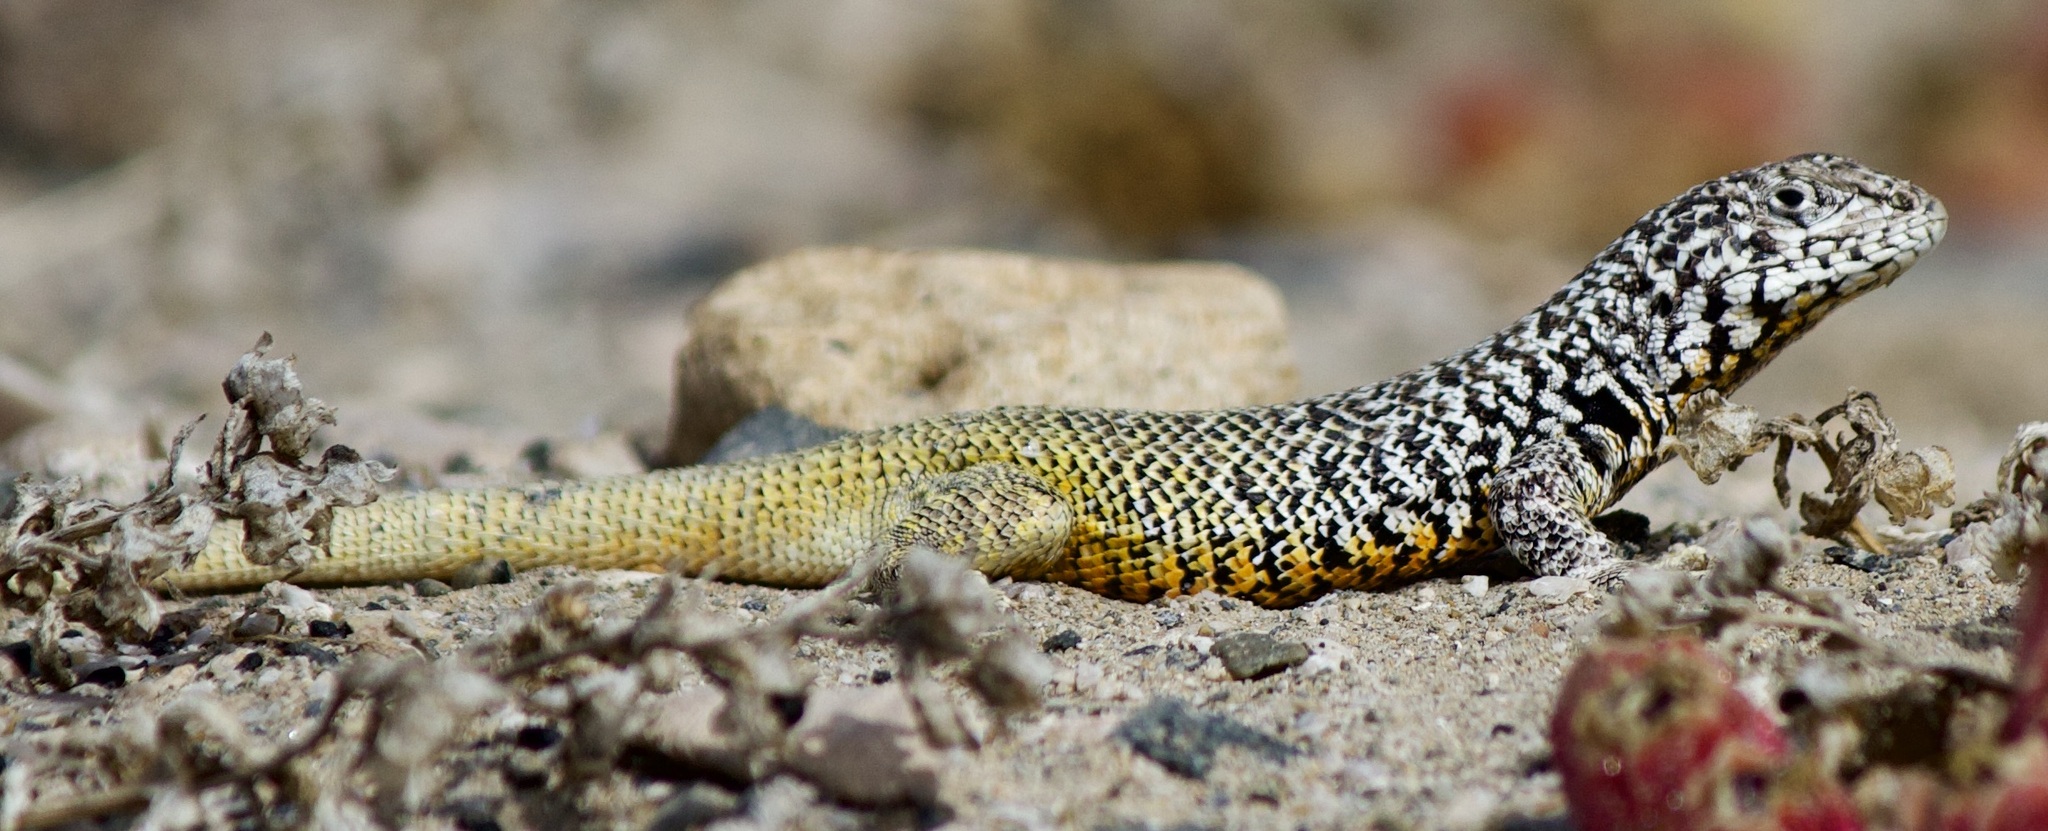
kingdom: Animalia
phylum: Chordata
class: Squamata
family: Liolaemidae
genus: Liolaemus
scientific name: Liolaemus silvai
